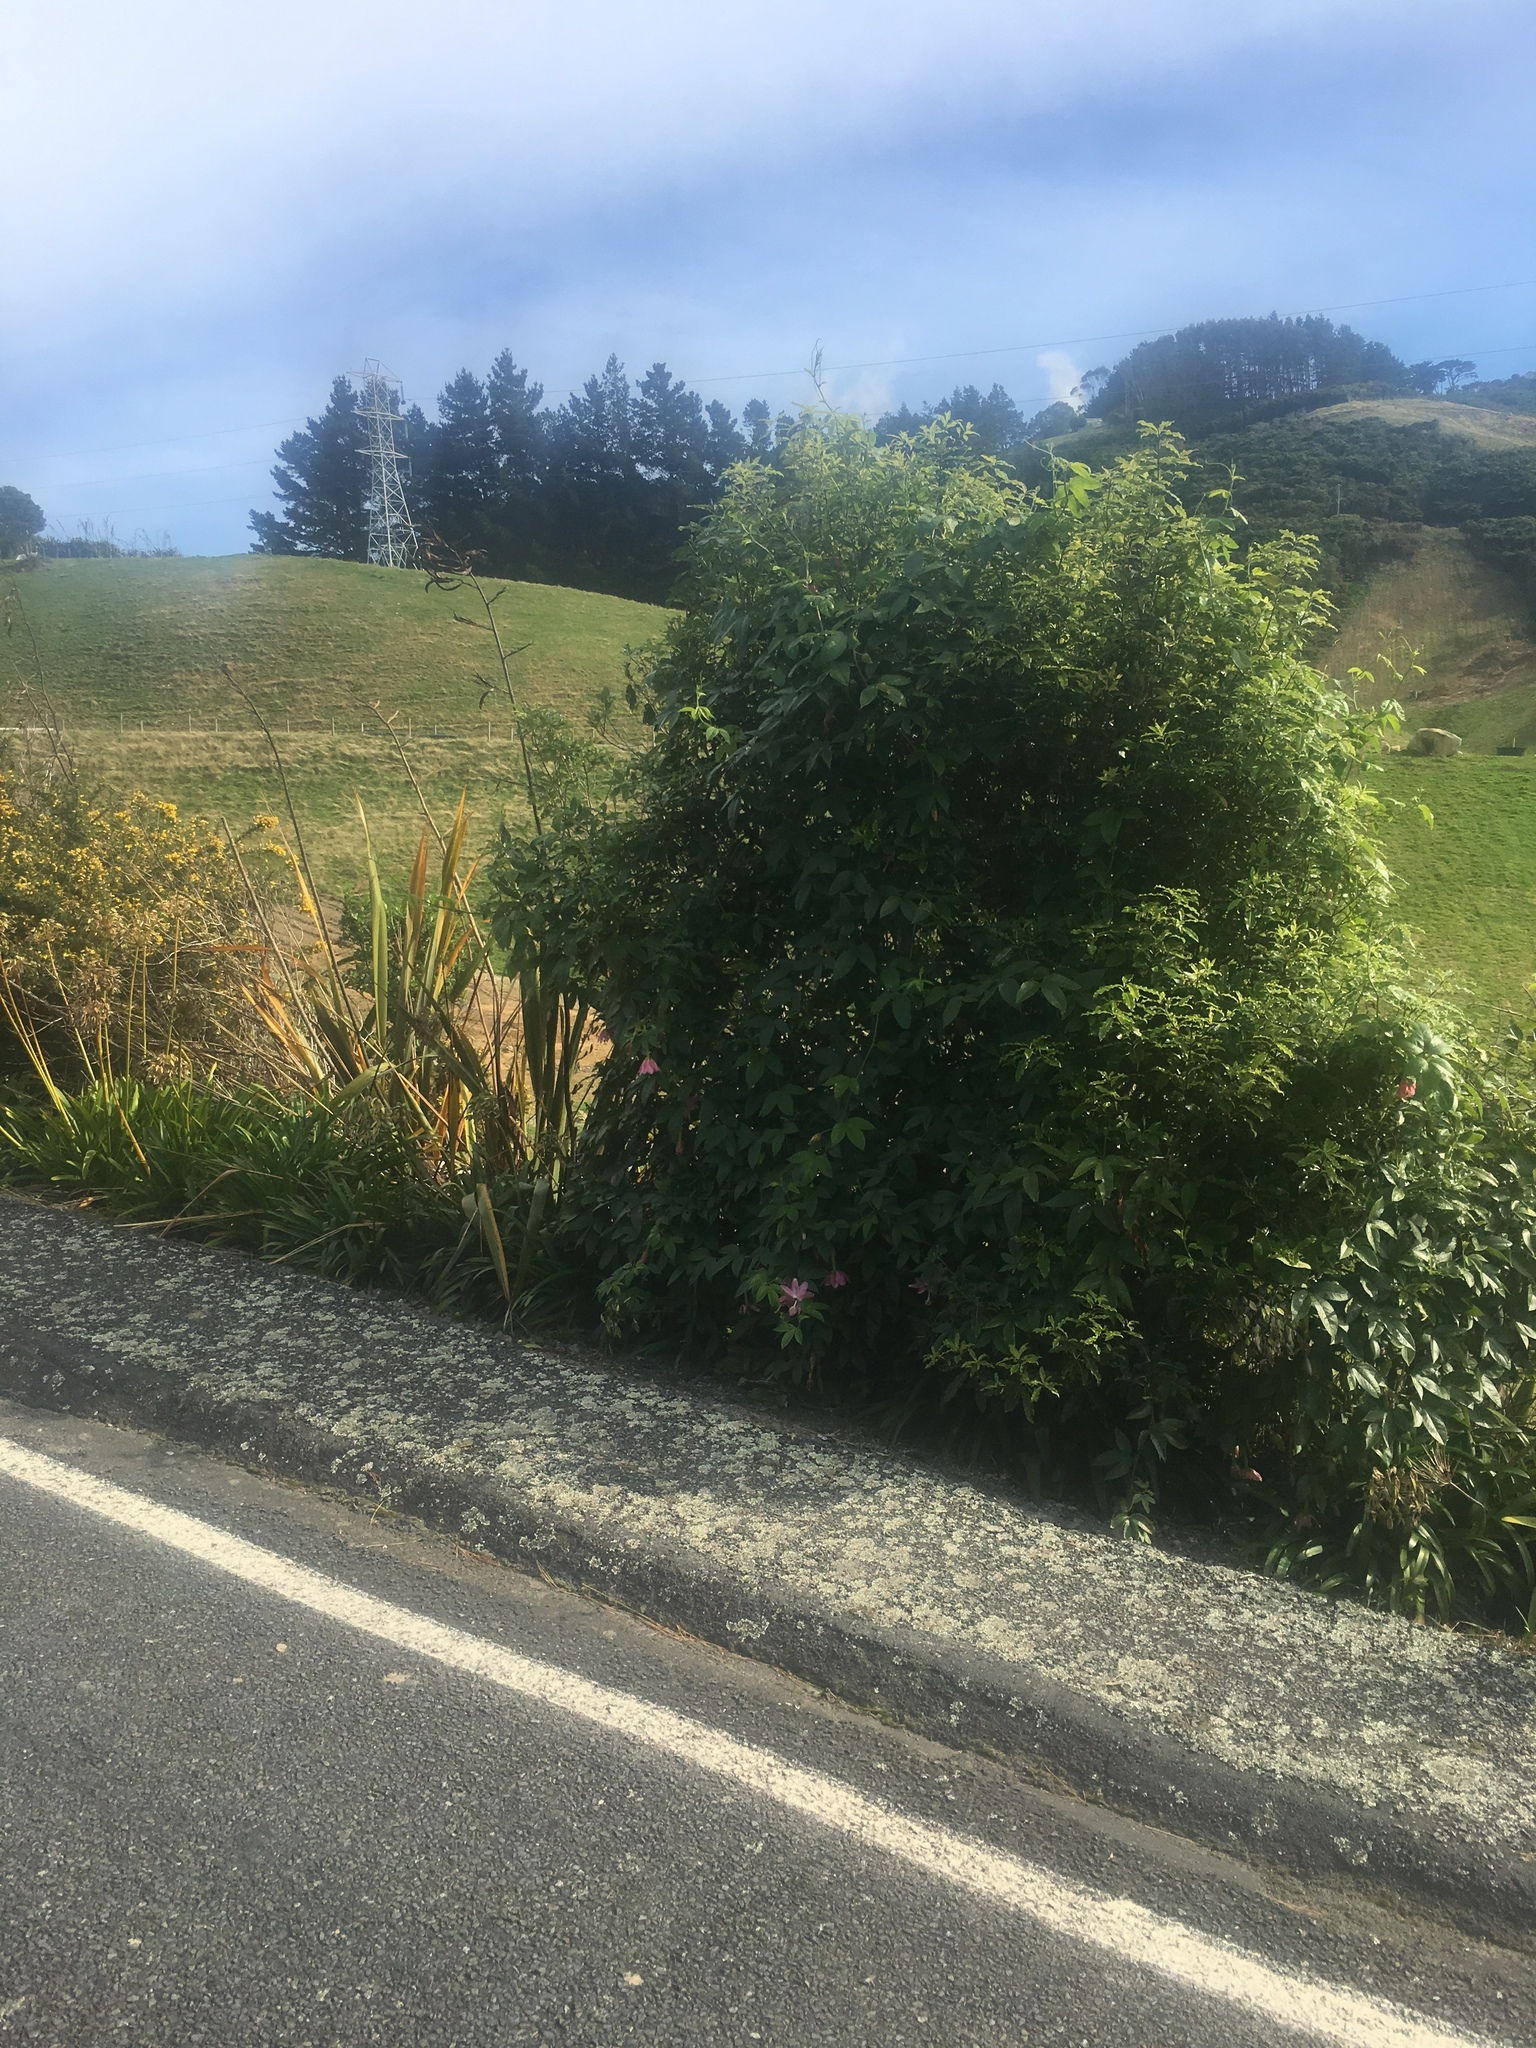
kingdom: Plantae
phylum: Tracheophyta
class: Magnoliopsida
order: Malpighiales
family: Passifloraceae
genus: Passiflora
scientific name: Passiflora tripartita
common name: Banana poka
